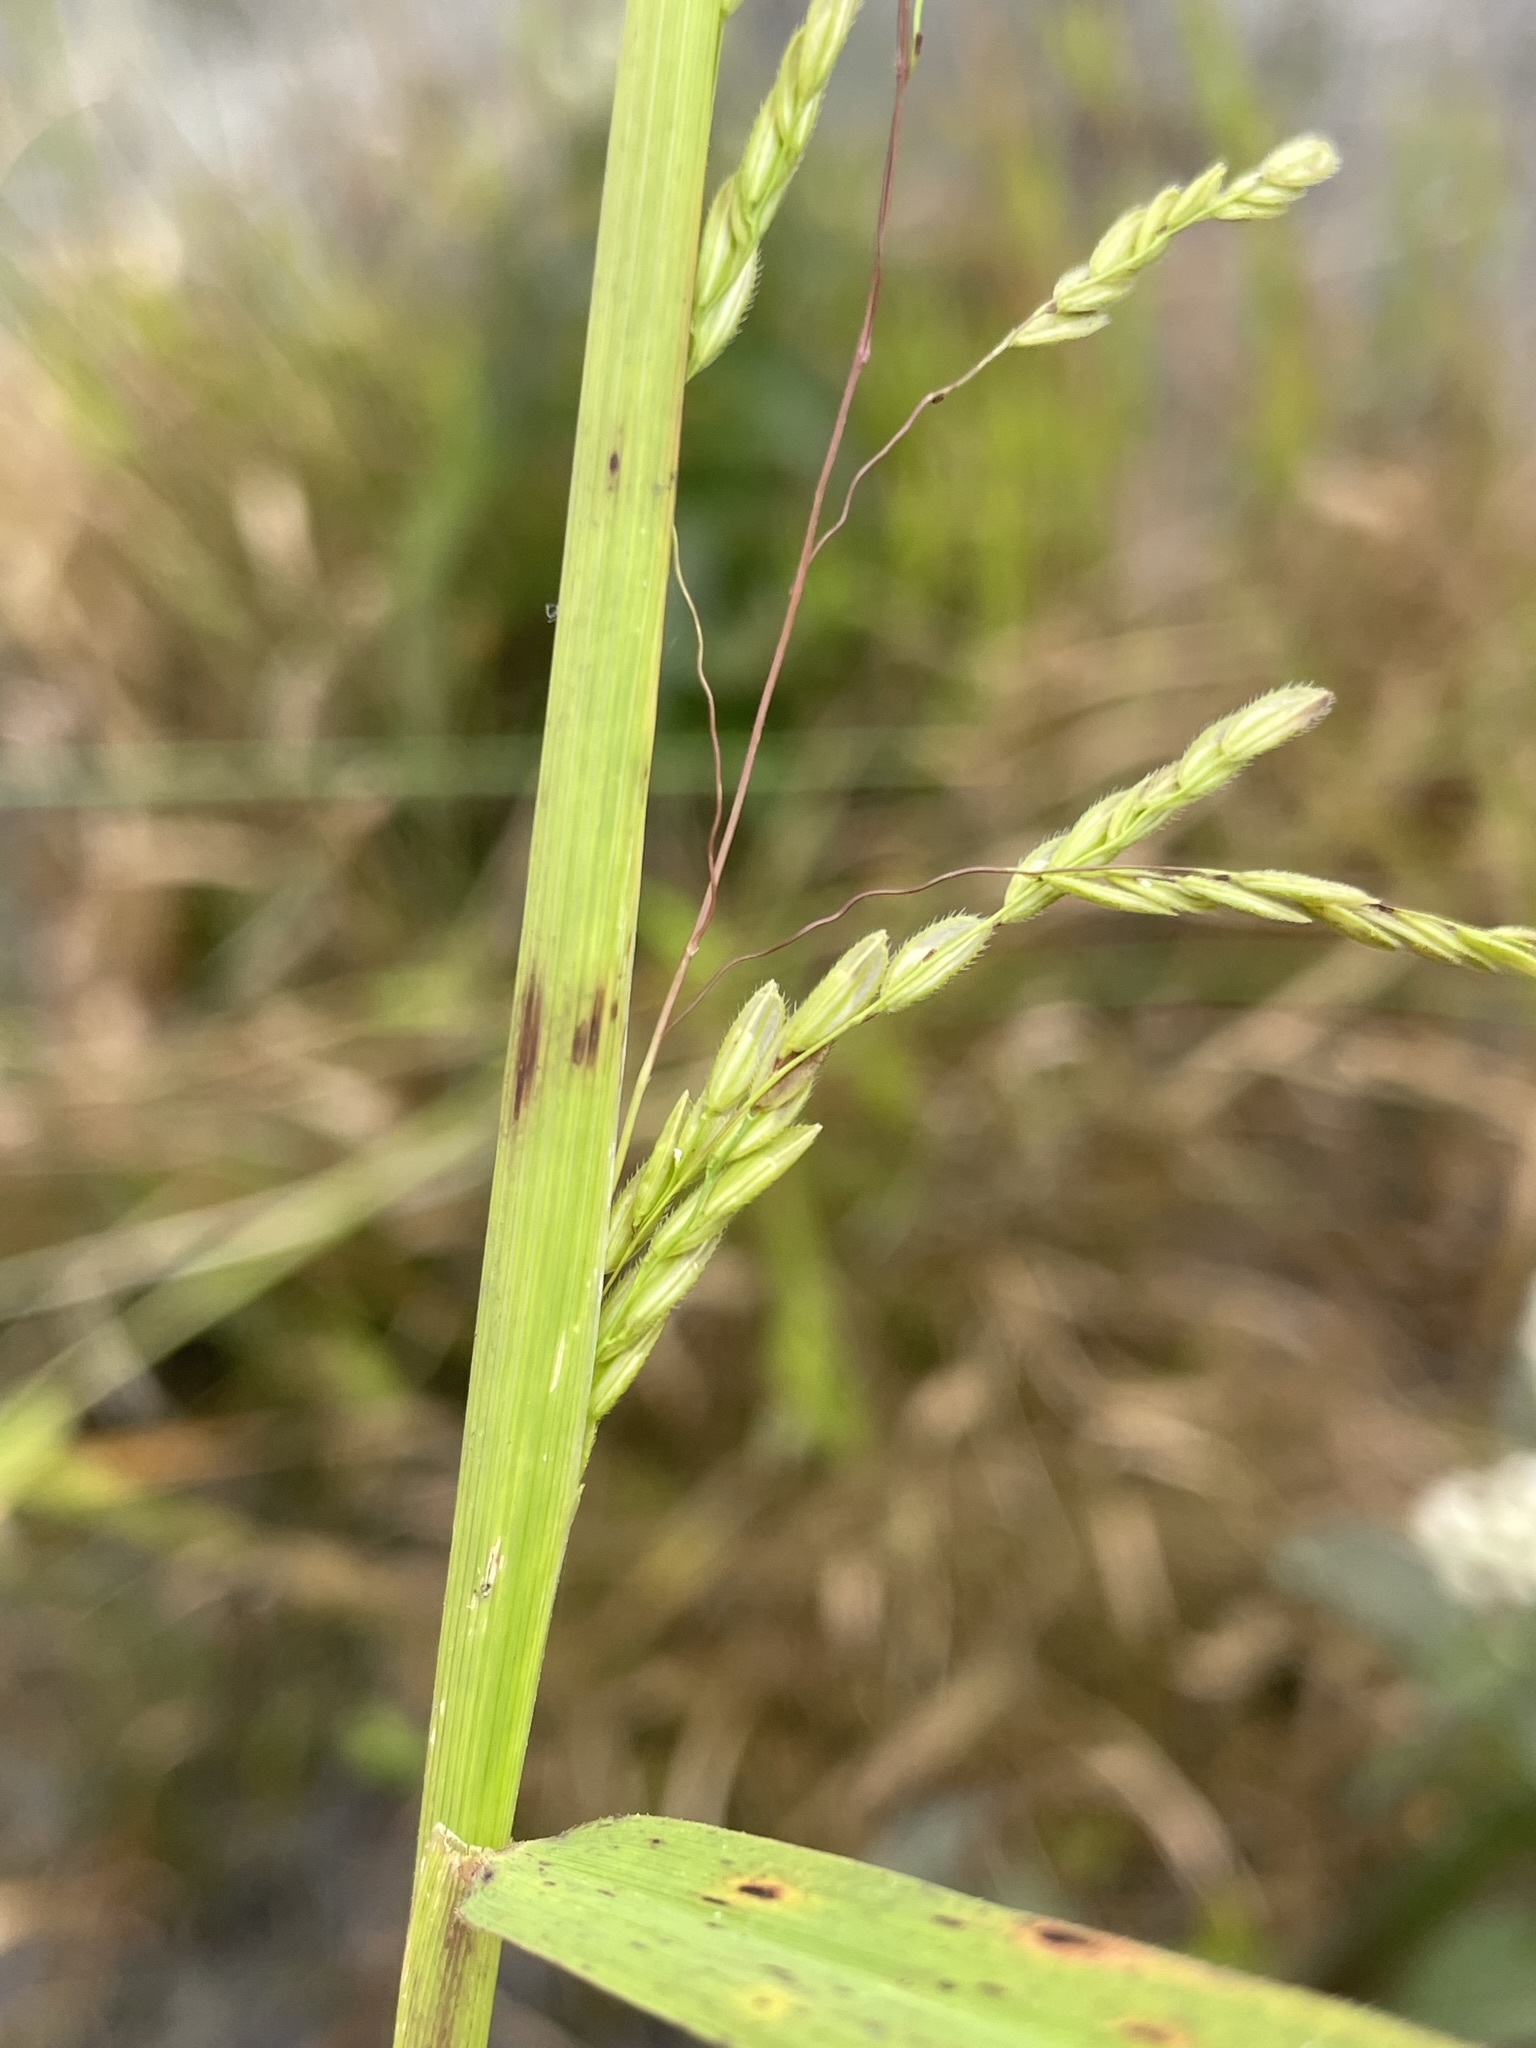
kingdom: Plantae
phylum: Tracheophyta
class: Liliopsida
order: Poales
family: Poaceae
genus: Leersia
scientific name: Leersia oryzoides
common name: Cut-grass
